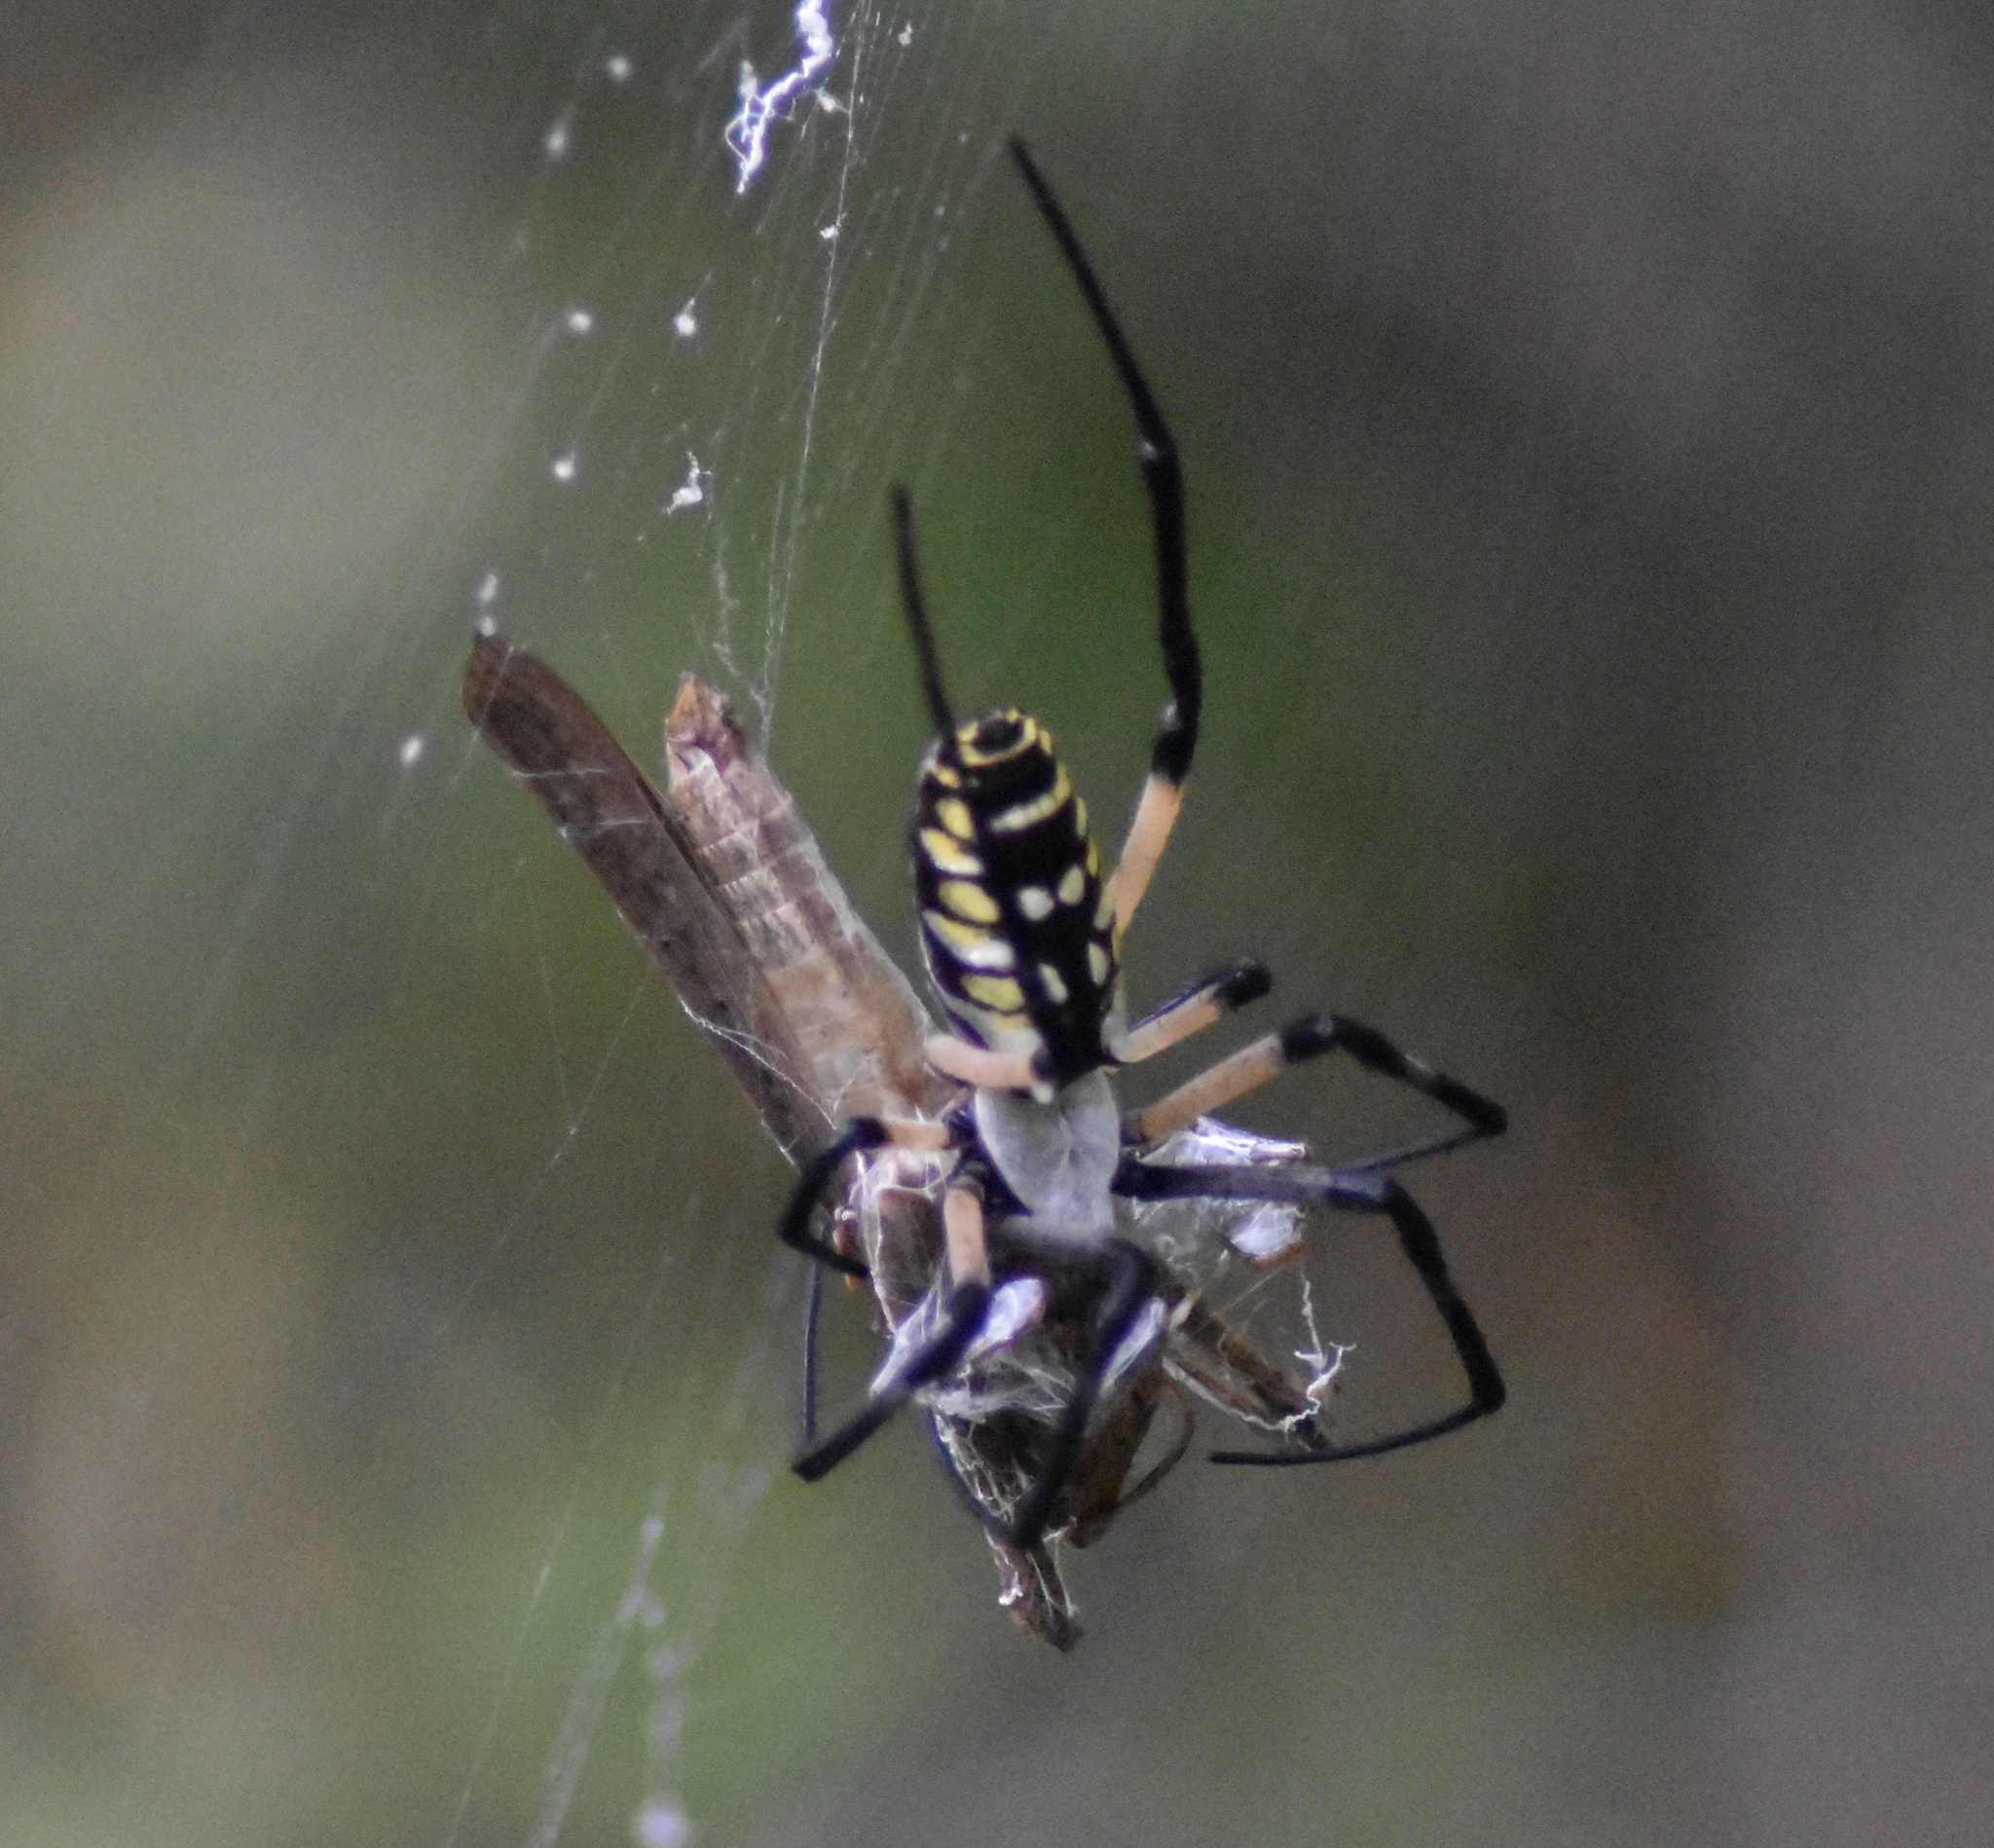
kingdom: Animalia
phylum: Arthropoda
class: Arachnida
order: Araneae
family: Araneidae
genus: Argiope
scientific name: Argiope aurantia
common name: Orb weavers
